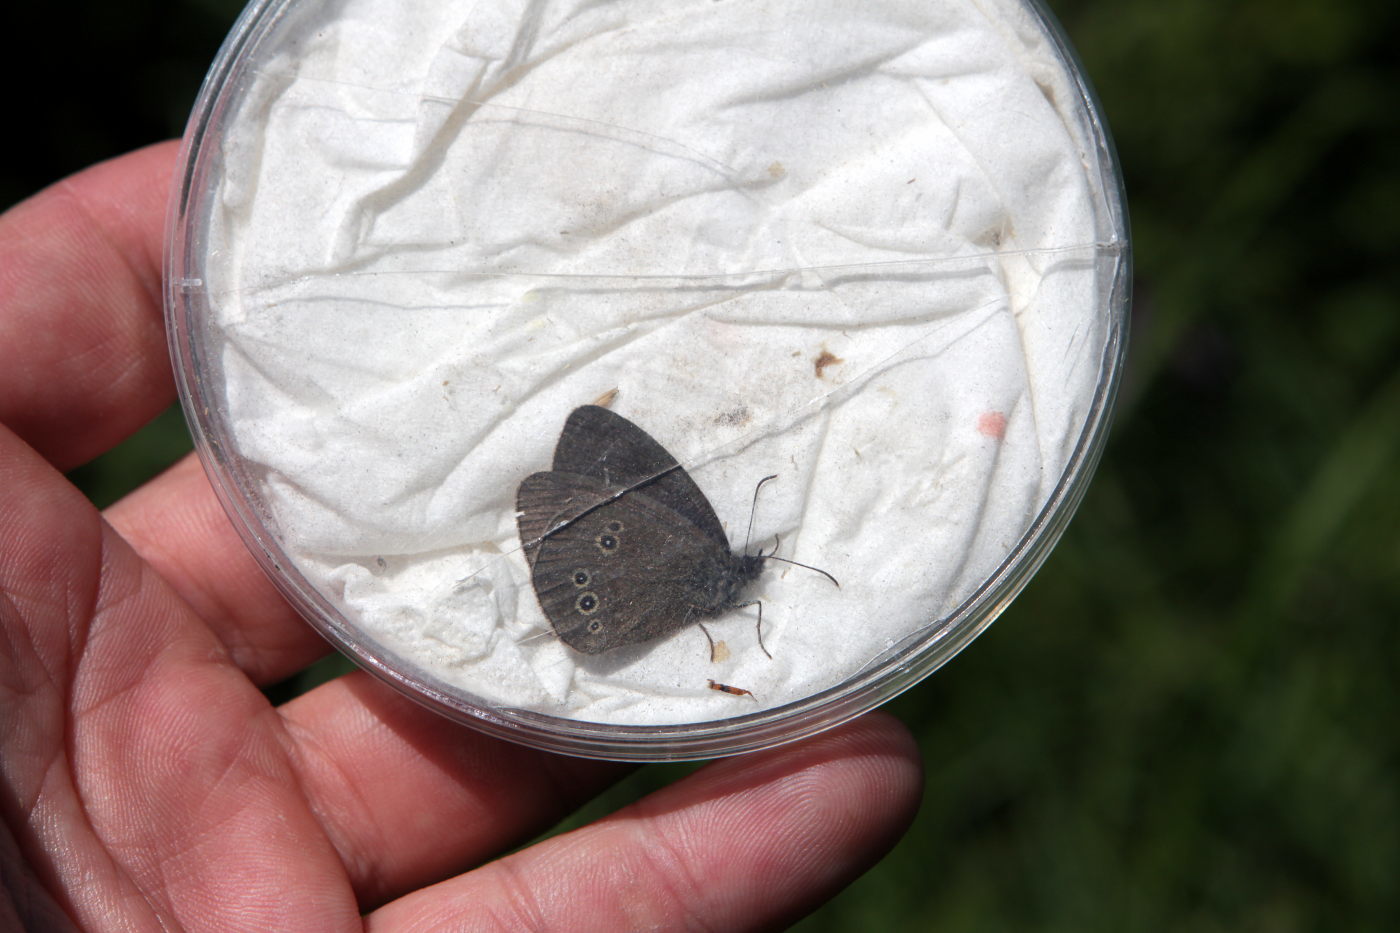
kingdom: Animalia
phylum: Arthropoda
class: Insecta
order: Lepidoptera
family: Nymphalidae
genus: Aphantopus
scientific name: Aphantopus hyperantus
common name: Ringlet
